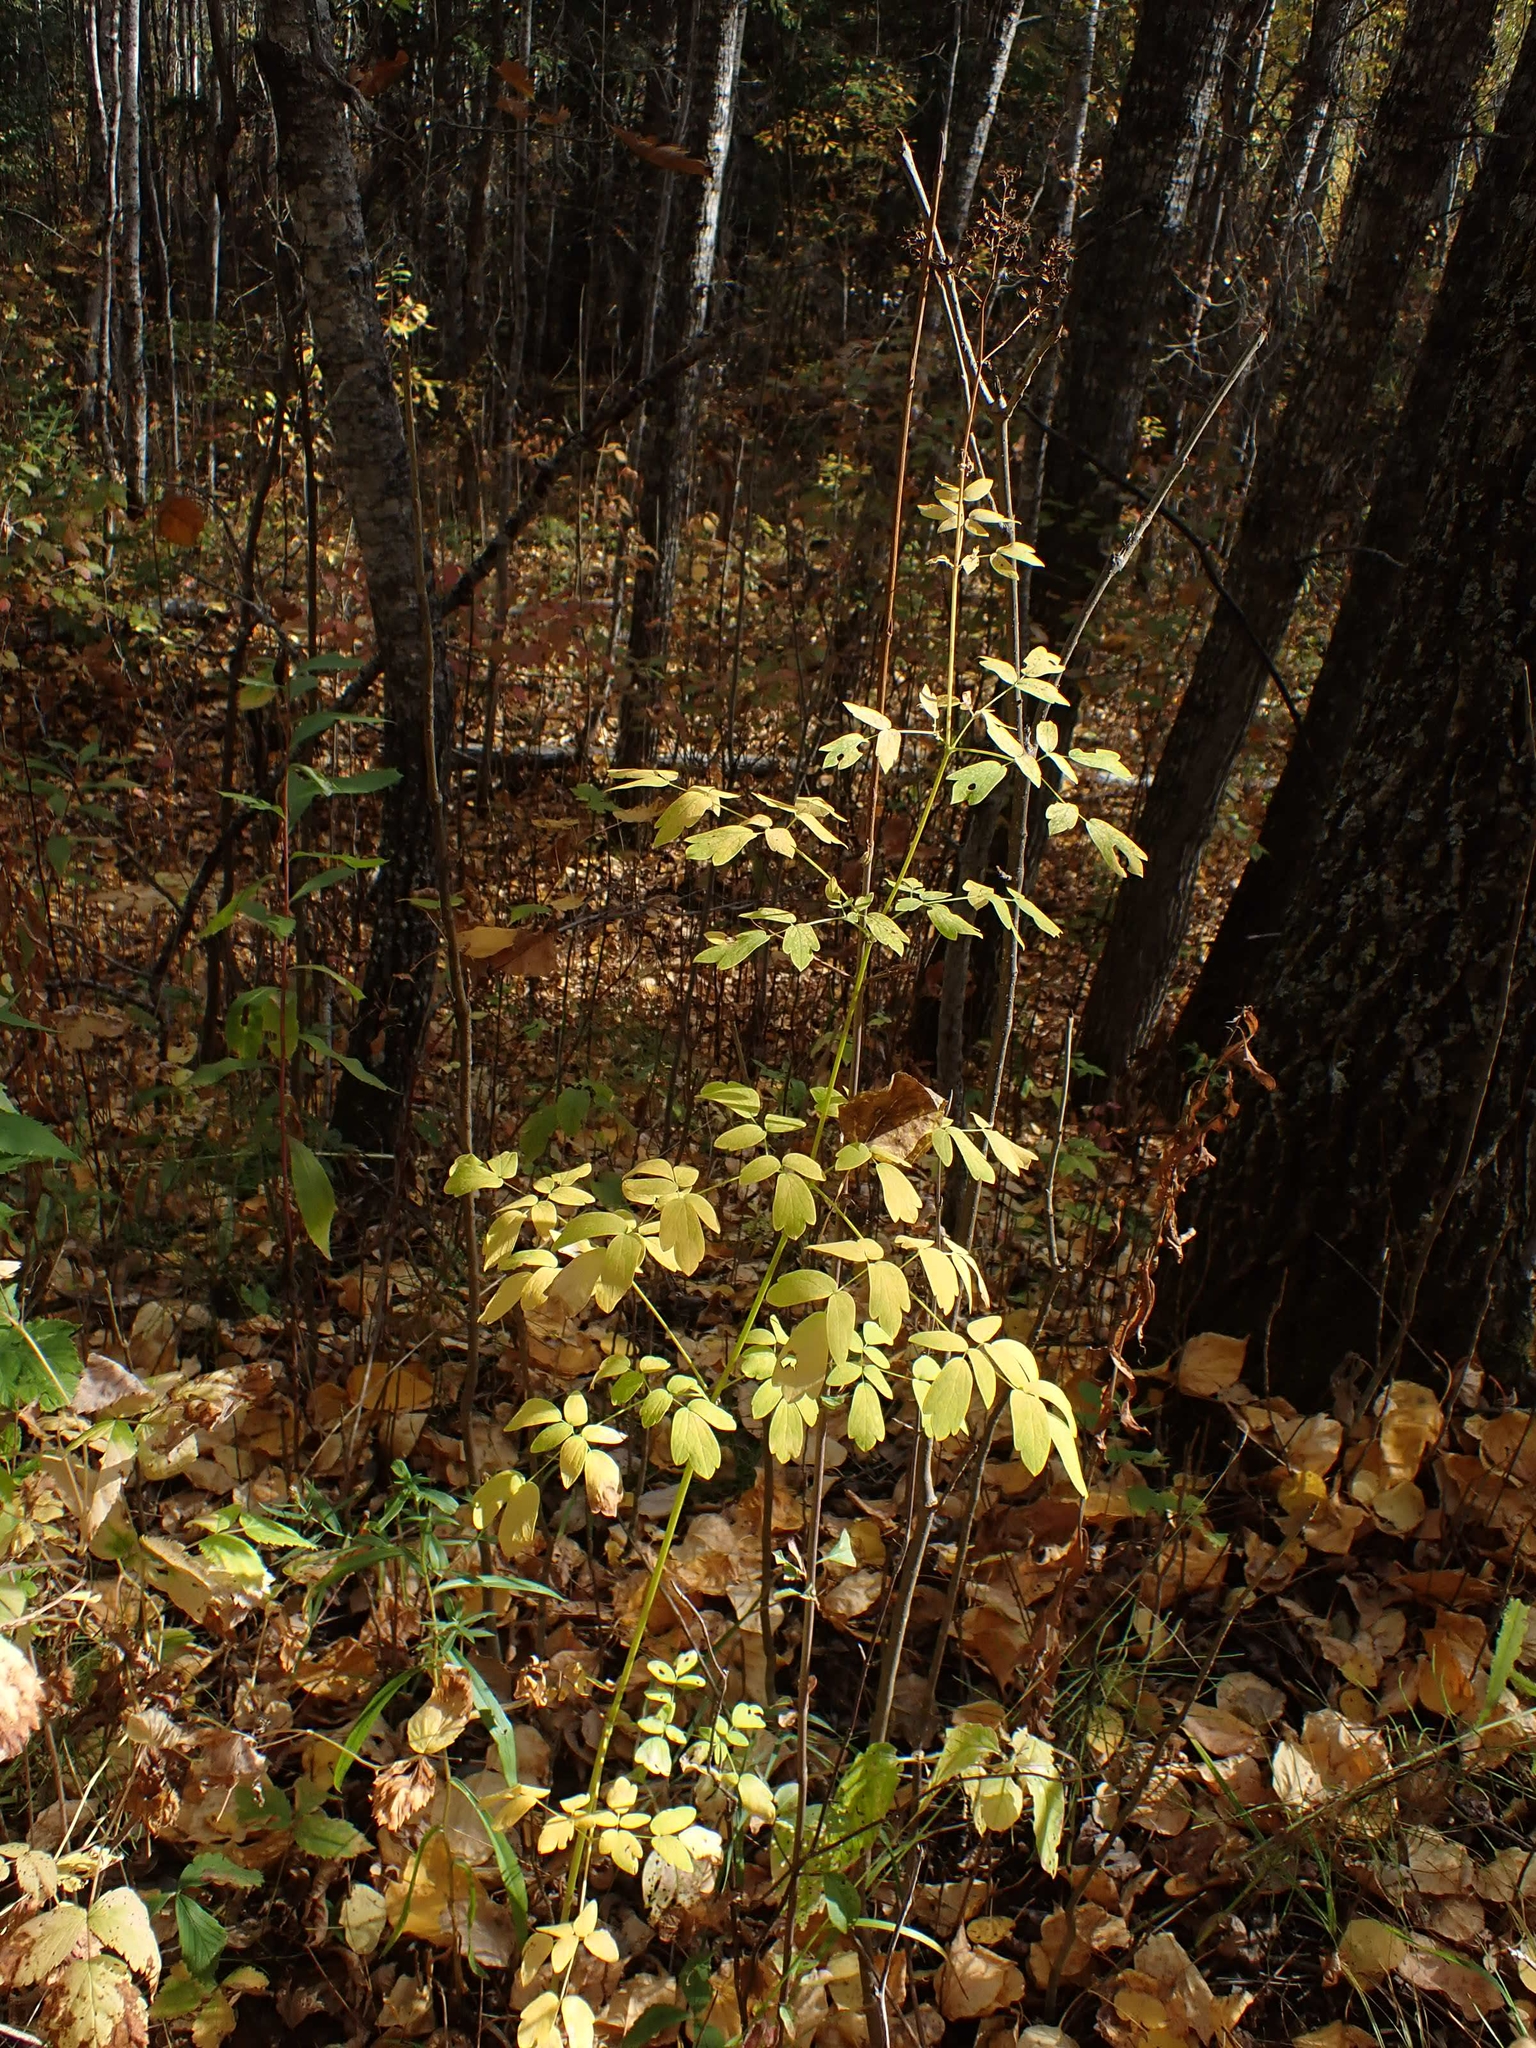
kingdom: Plantae
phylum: Tracheophyta
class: Magnoliopsida
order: Ranunculales
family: Ranunculaceae
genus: Thalictrum
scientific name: Thalictrum dasycarpum
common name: Purple meadow-rue
